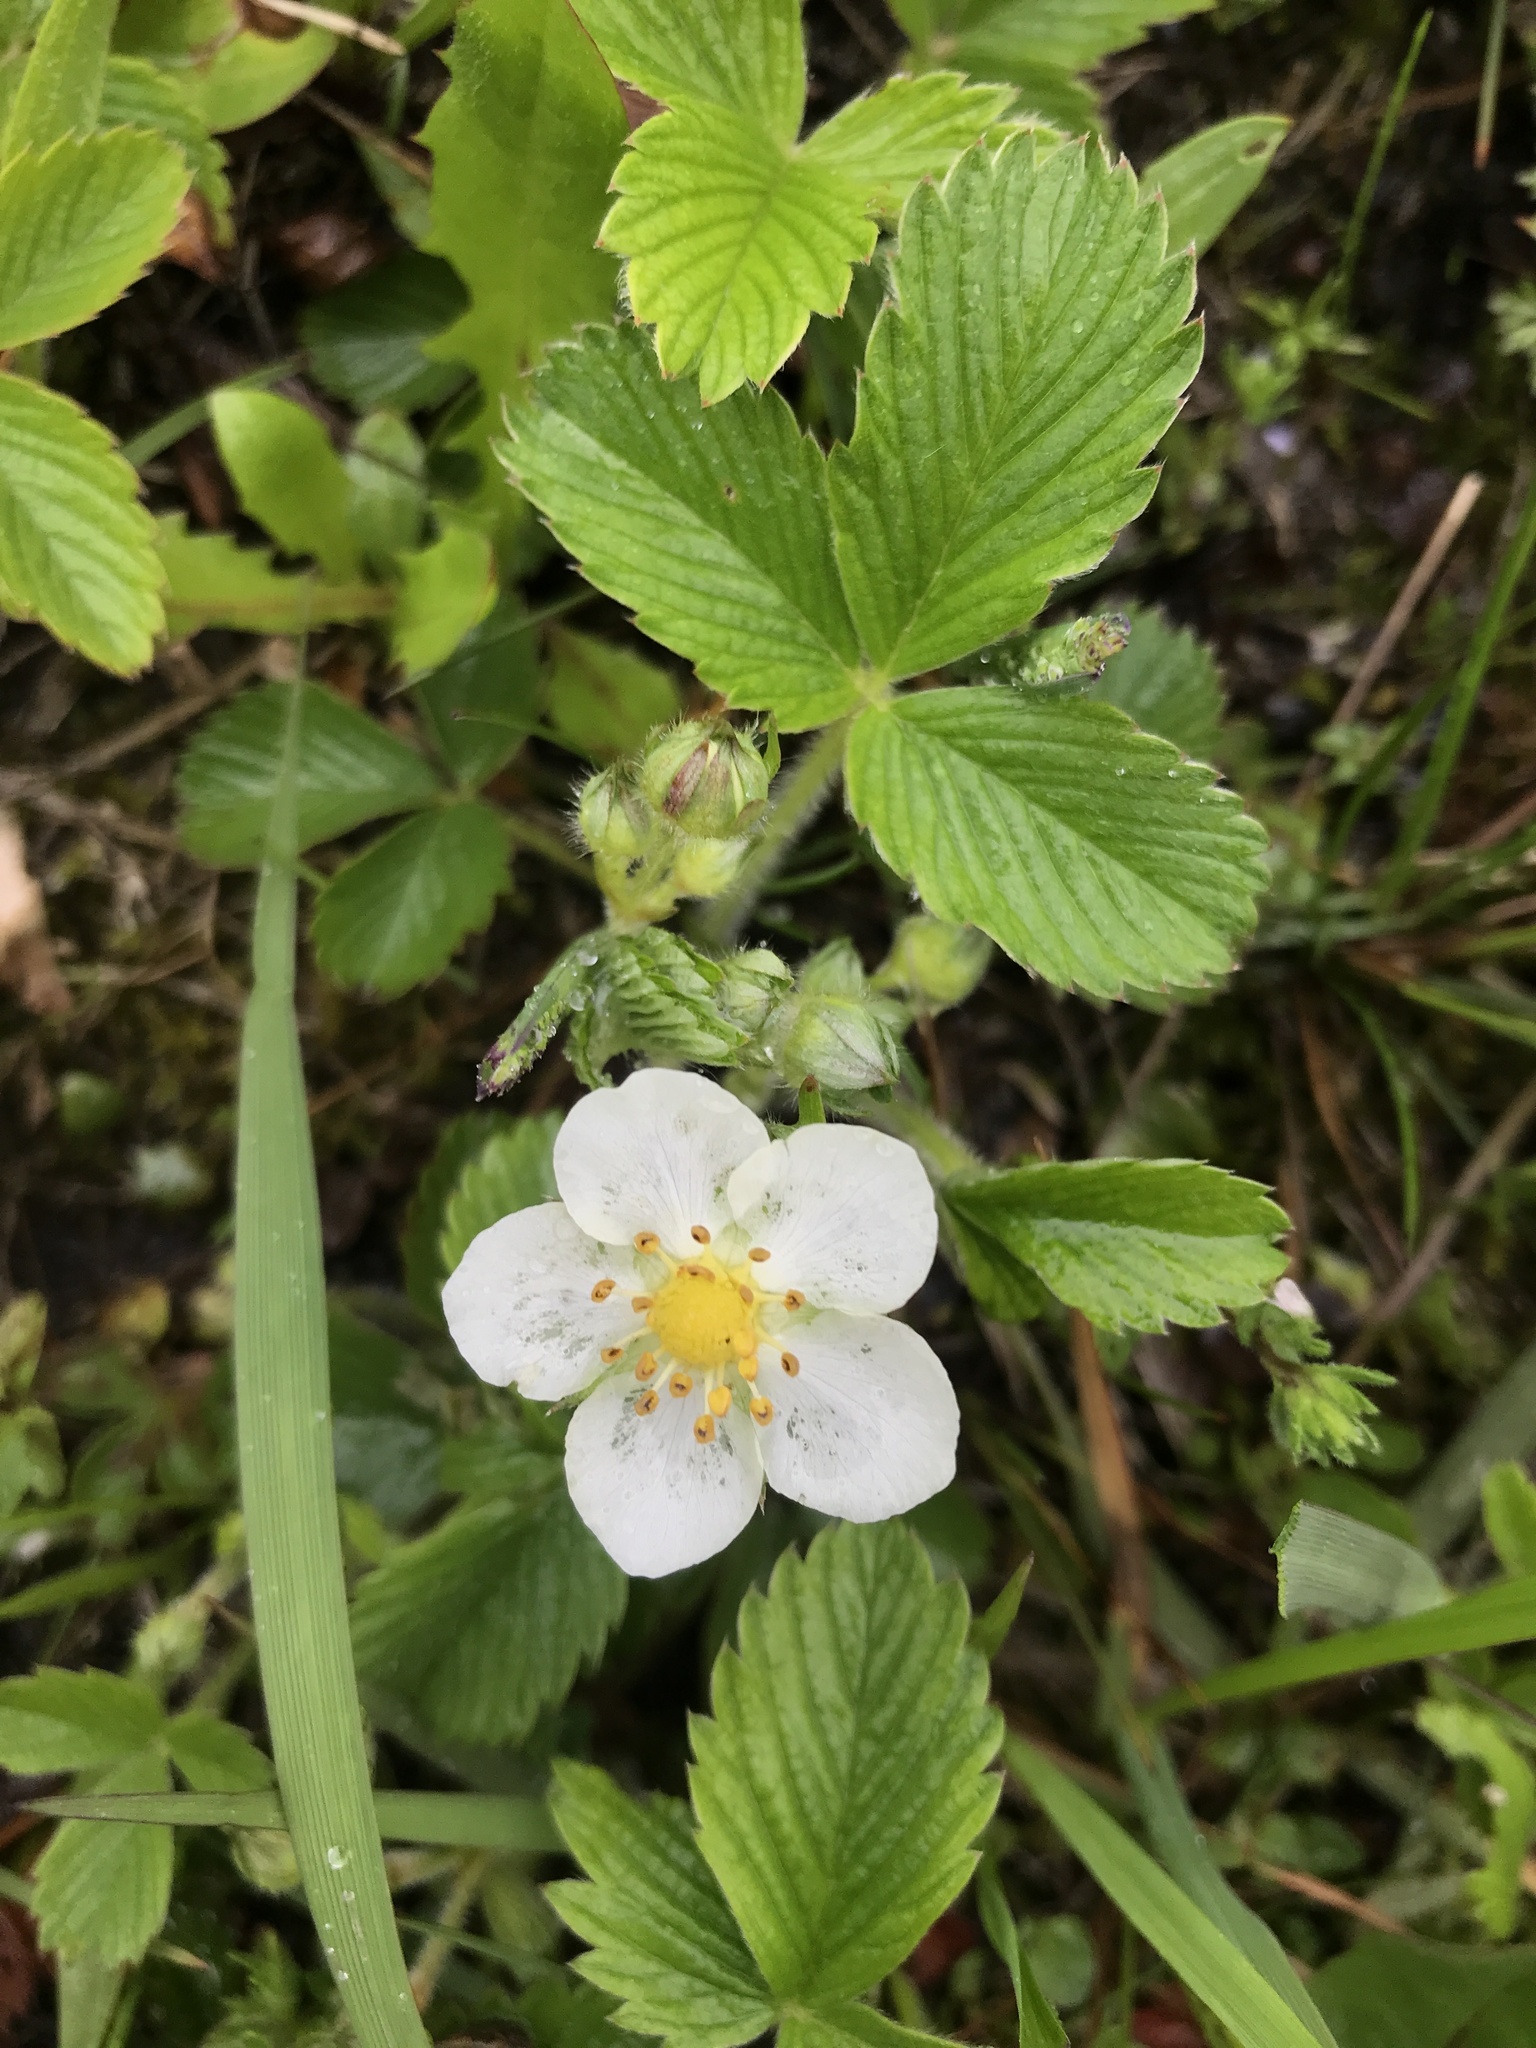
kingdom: Plantae
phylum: Tracheophyta
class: Magnoliopsida
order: Rosales
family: Rosaceae
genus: Fragaria
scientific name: Fragaria viridis
